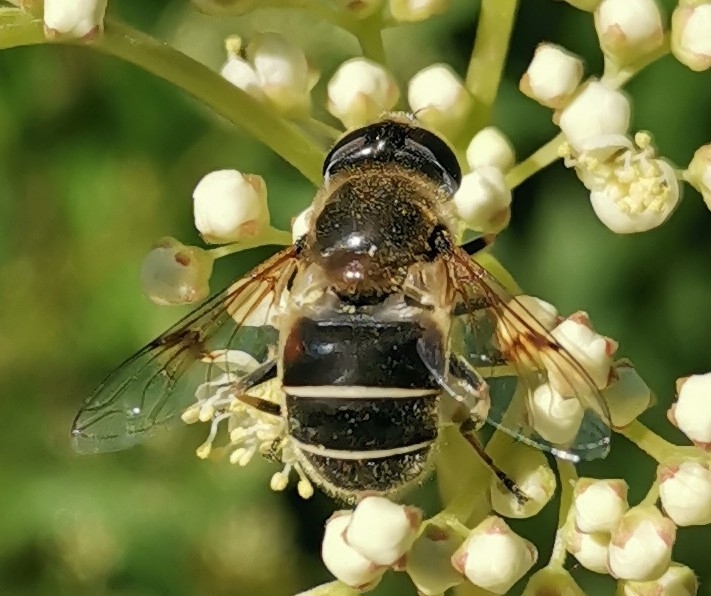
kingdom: Animalia
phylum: Arthropoda
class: Insecta
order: Diptera
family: Syrphidae
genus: Eristalis
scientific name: Eristalis obscura
